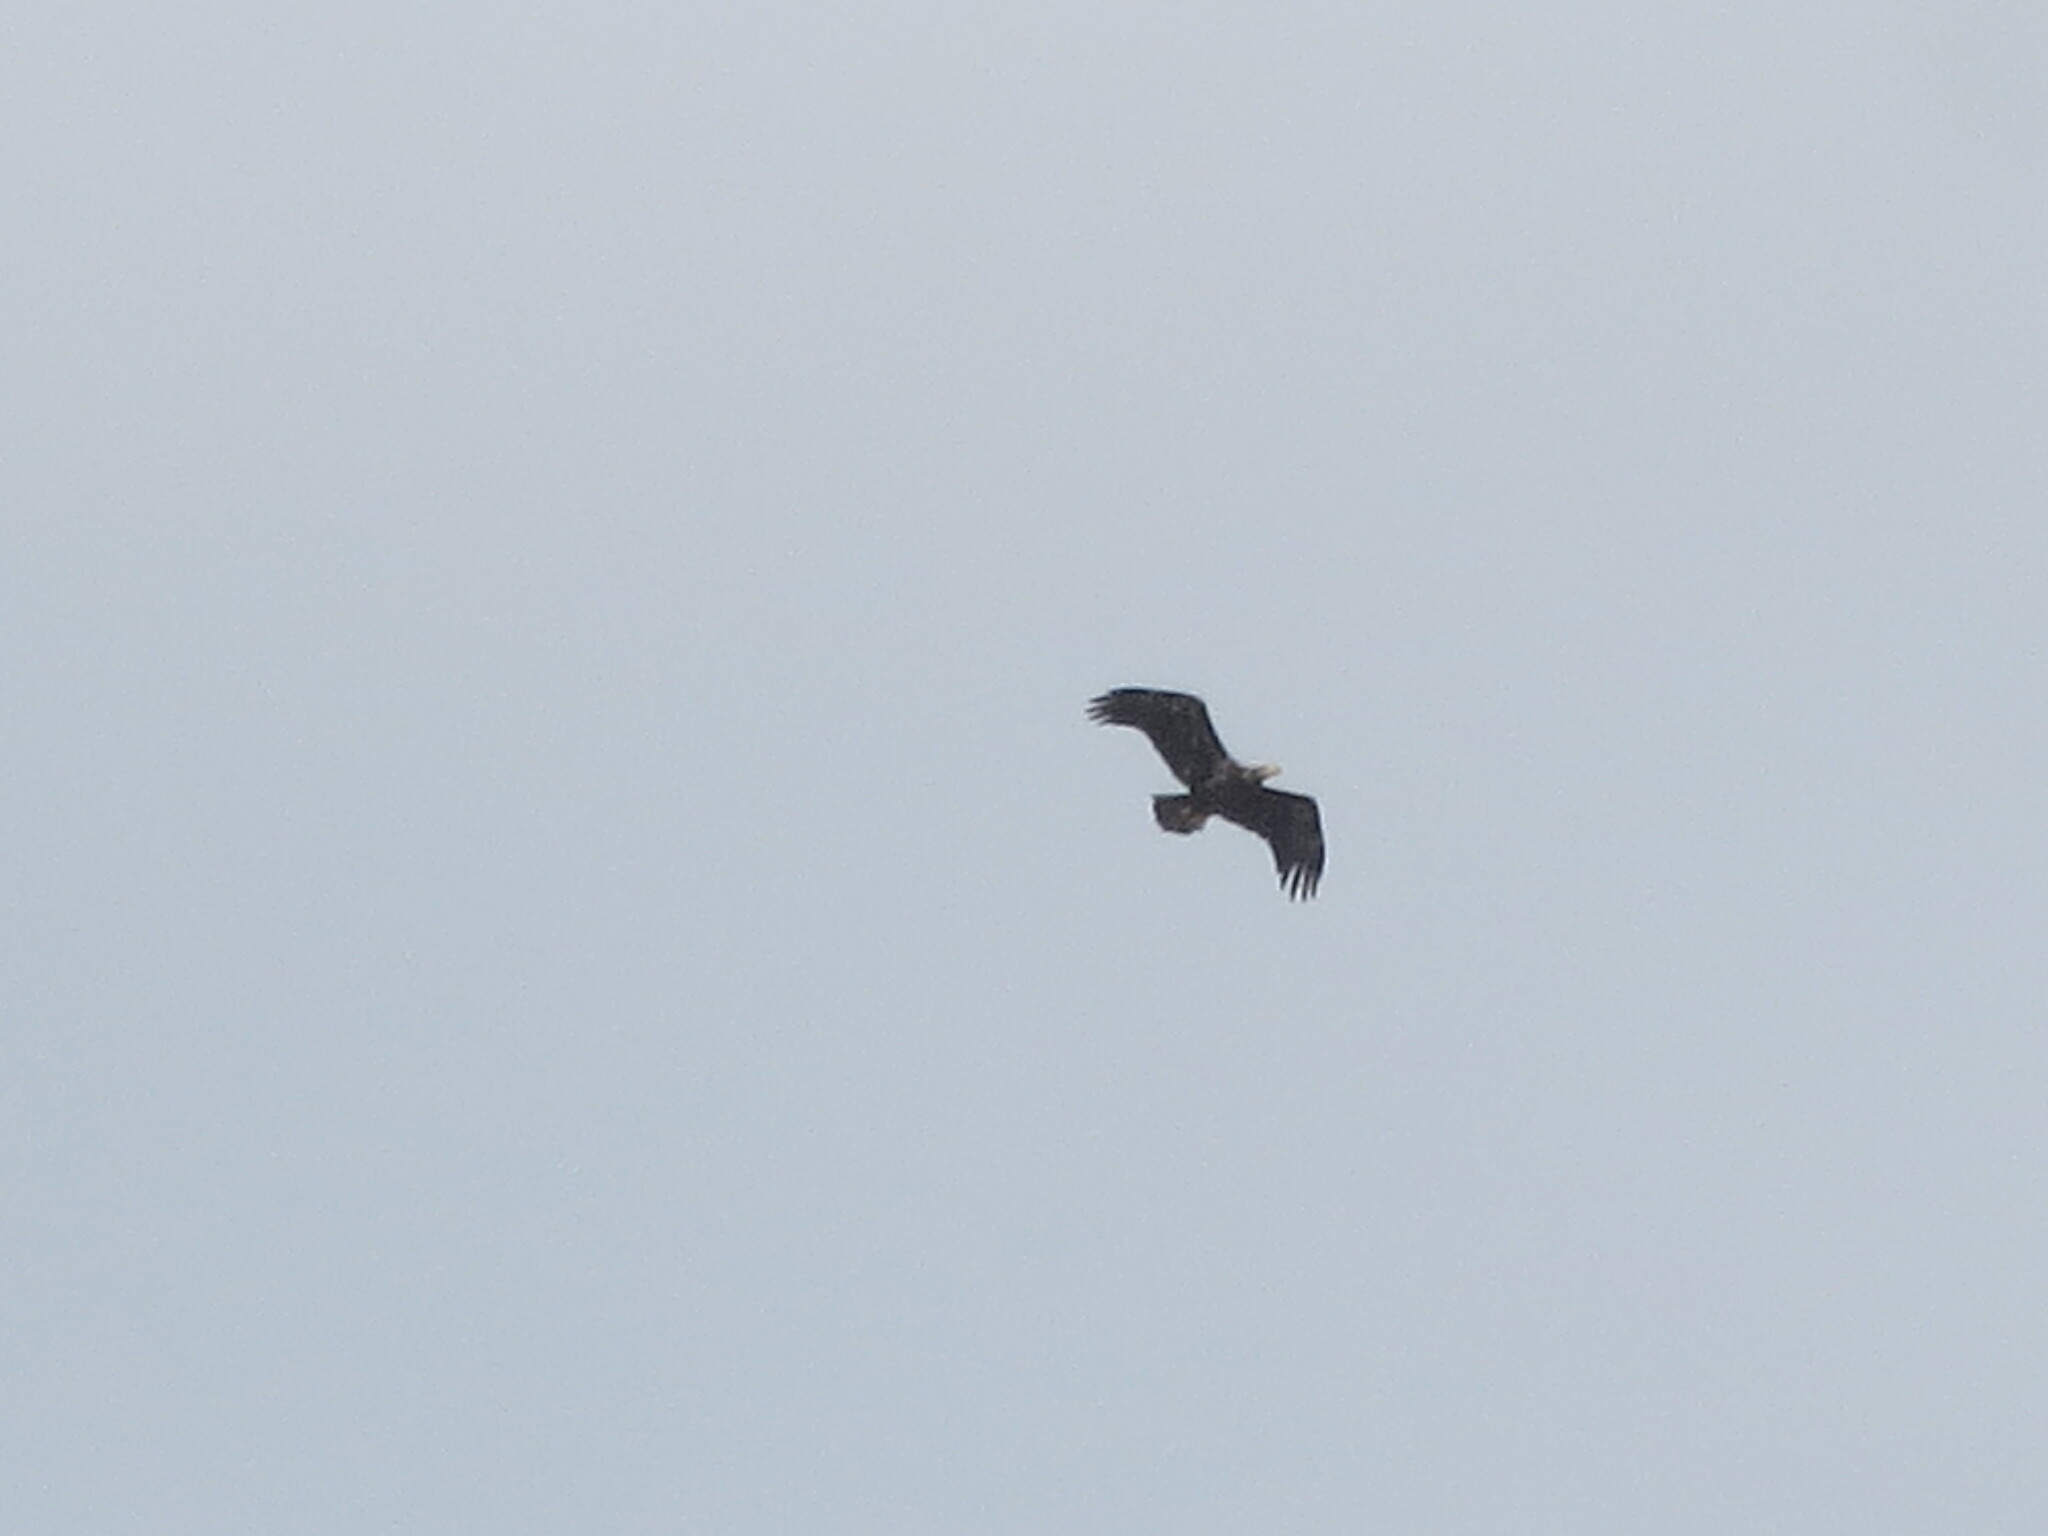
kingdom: Animalia
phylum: Chordata
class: Aves
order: Accipitriformes
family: Accipitridae
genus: Haliaeetus
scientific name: Haliaeetus leucocephalus
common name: Bald eagle
